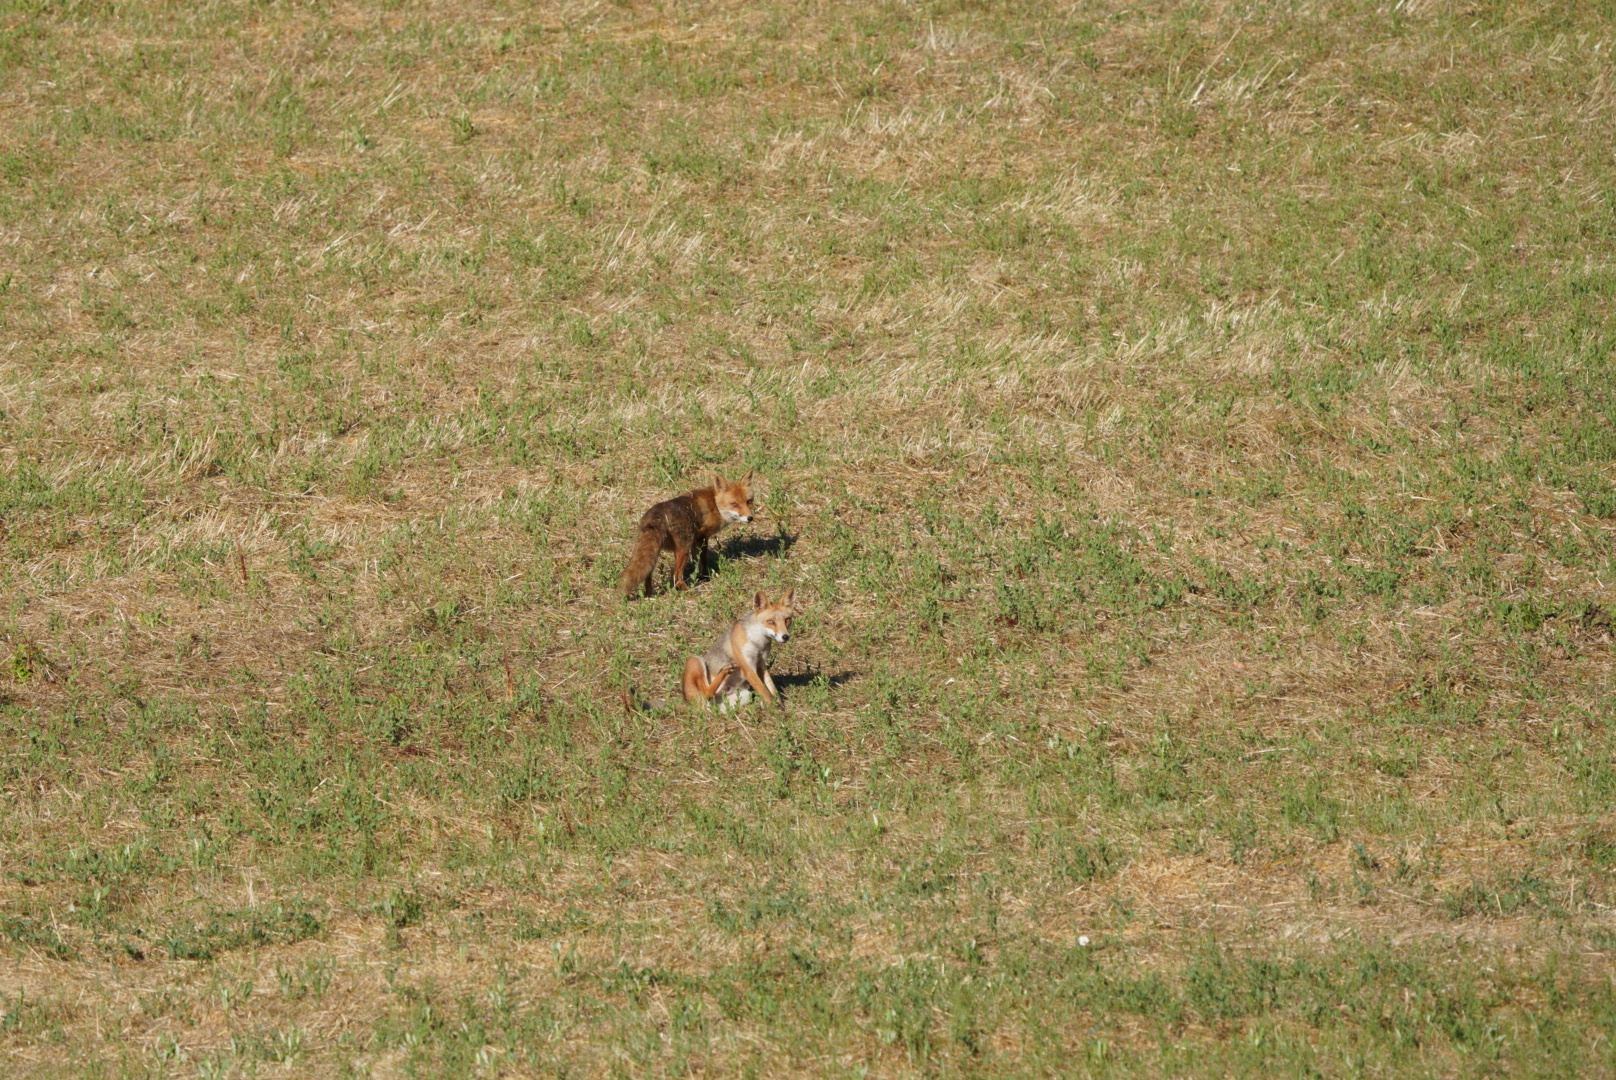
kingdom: Animalia
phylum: Chordata
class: Mammalia
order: Carnivora
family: Canidae
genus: Vulpes
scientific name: Vulpes vulpes
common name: Red fox
